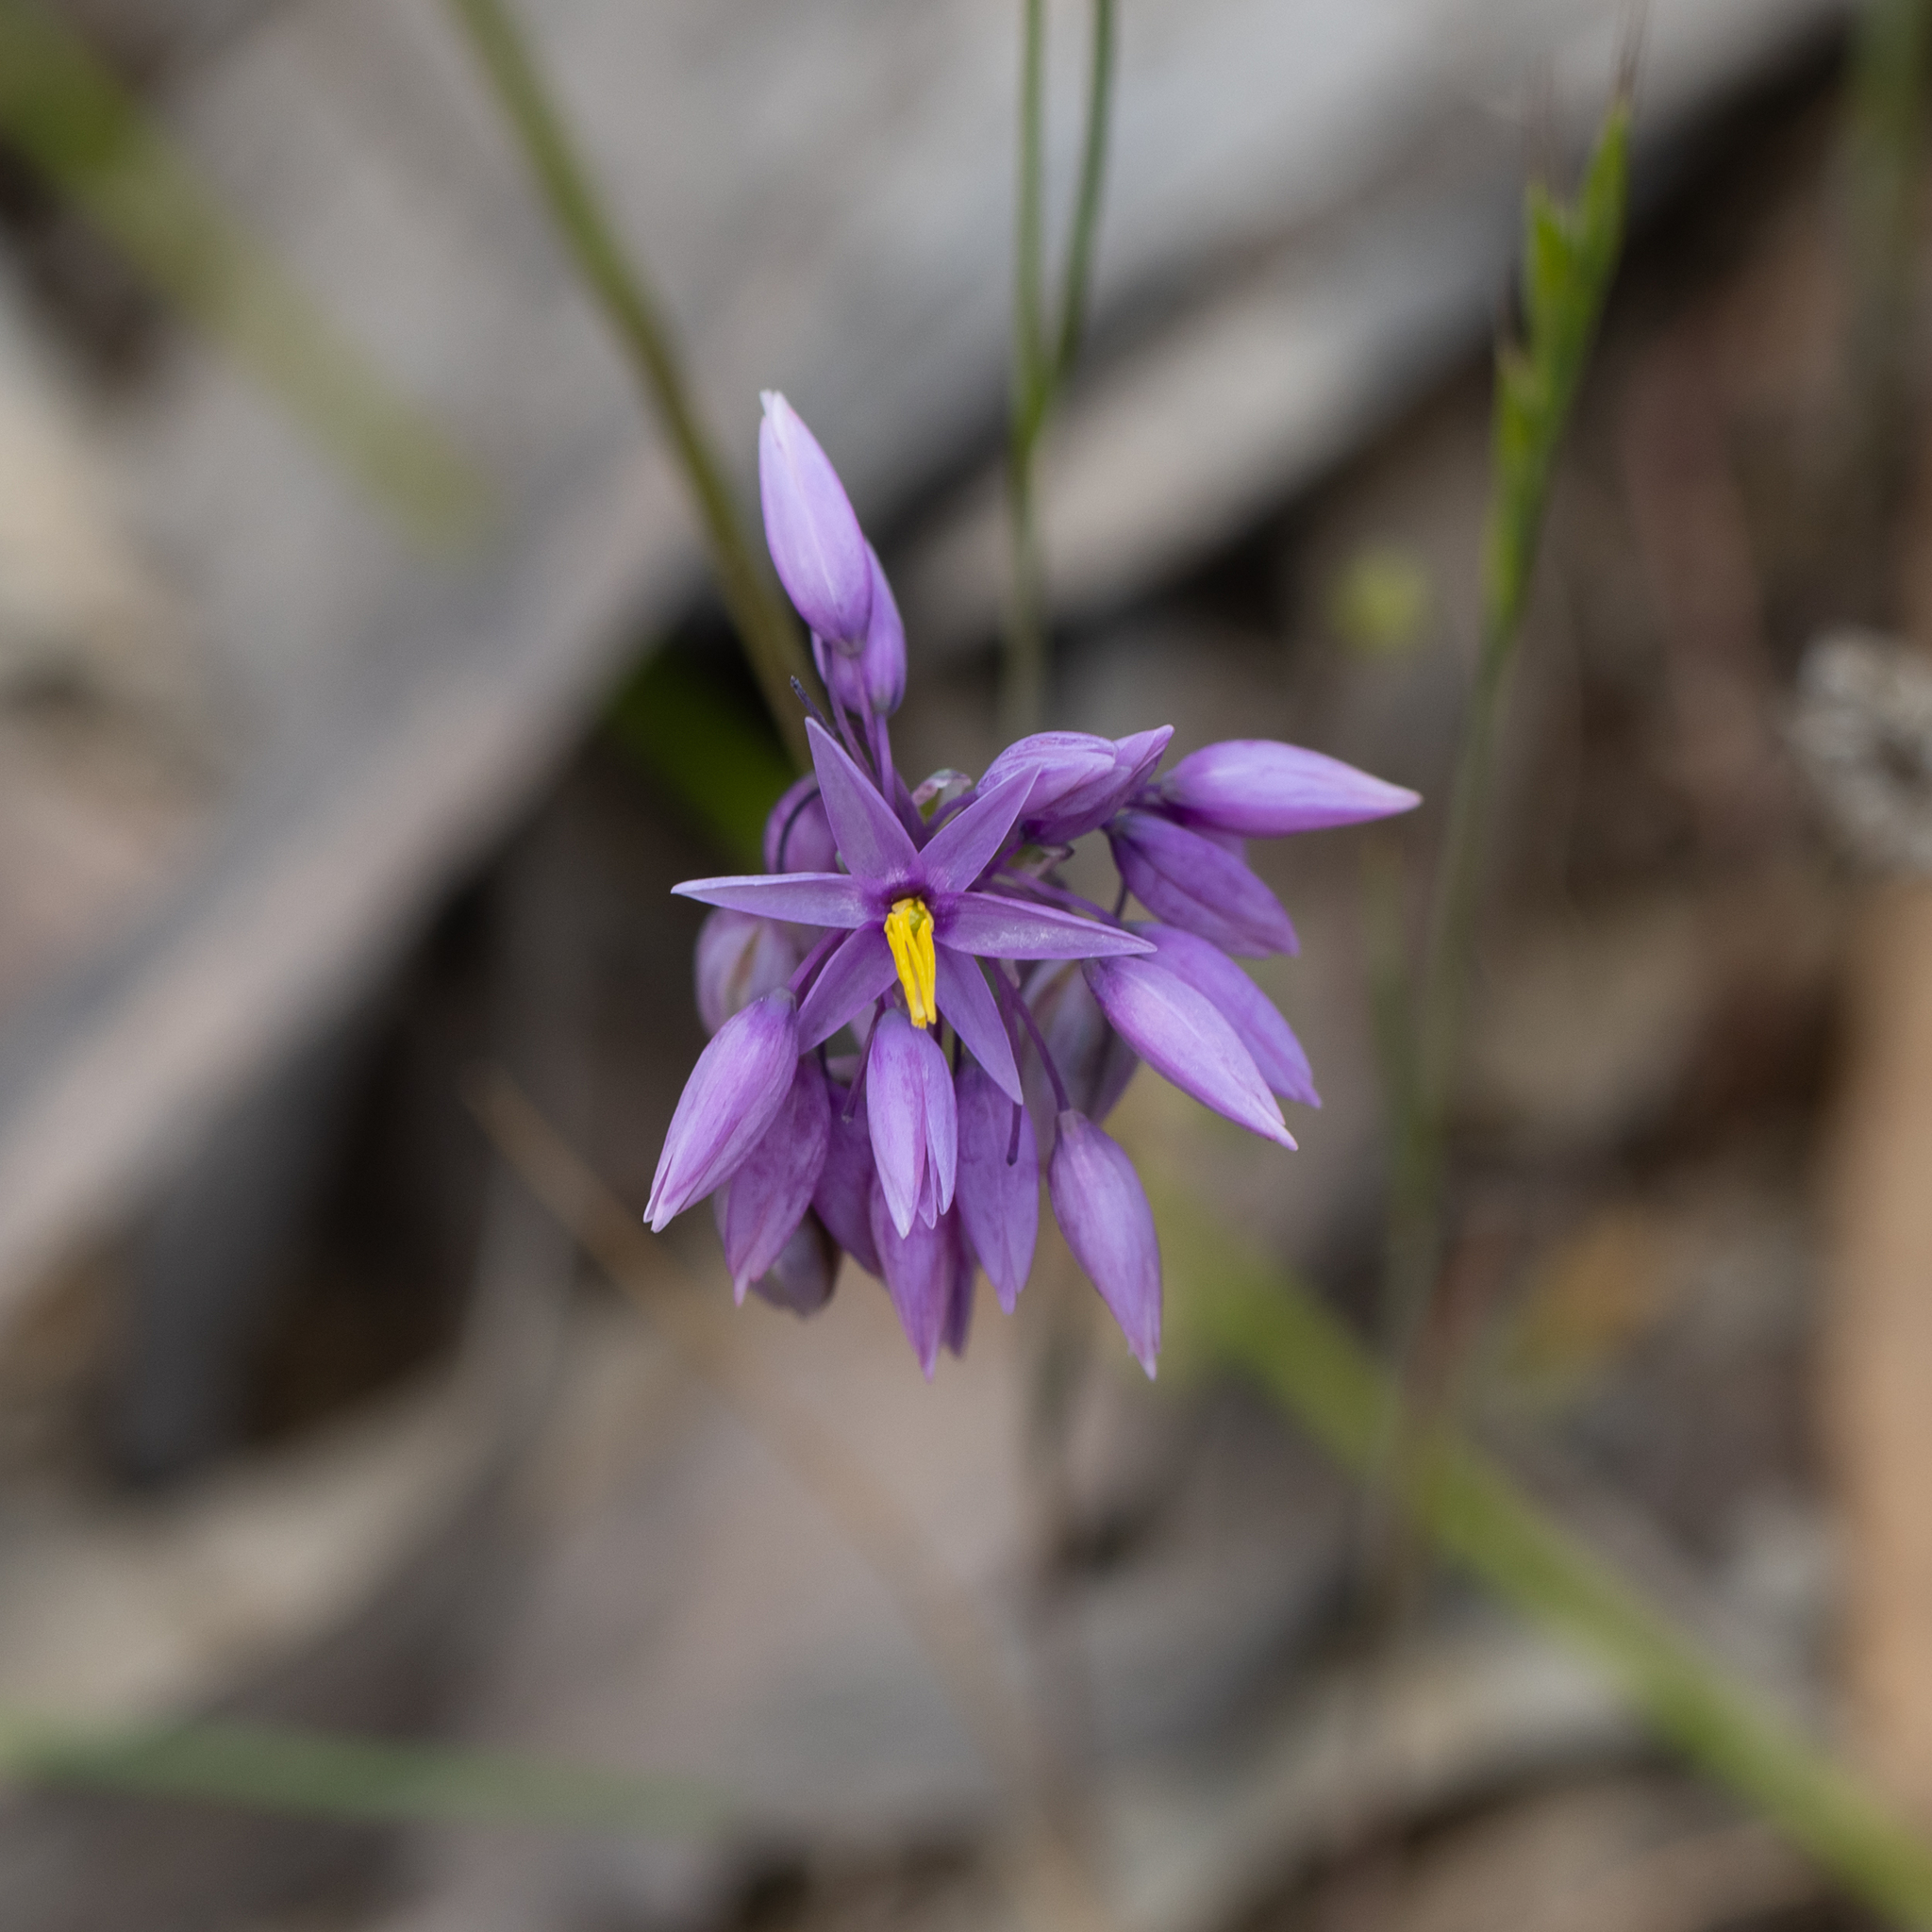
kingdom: Plantae
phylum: Tracheophyta
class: Liliopsida
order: Asparagales
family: Asparagaceae
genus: Sowerbaea
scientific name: Sowerbaea laxiflora
